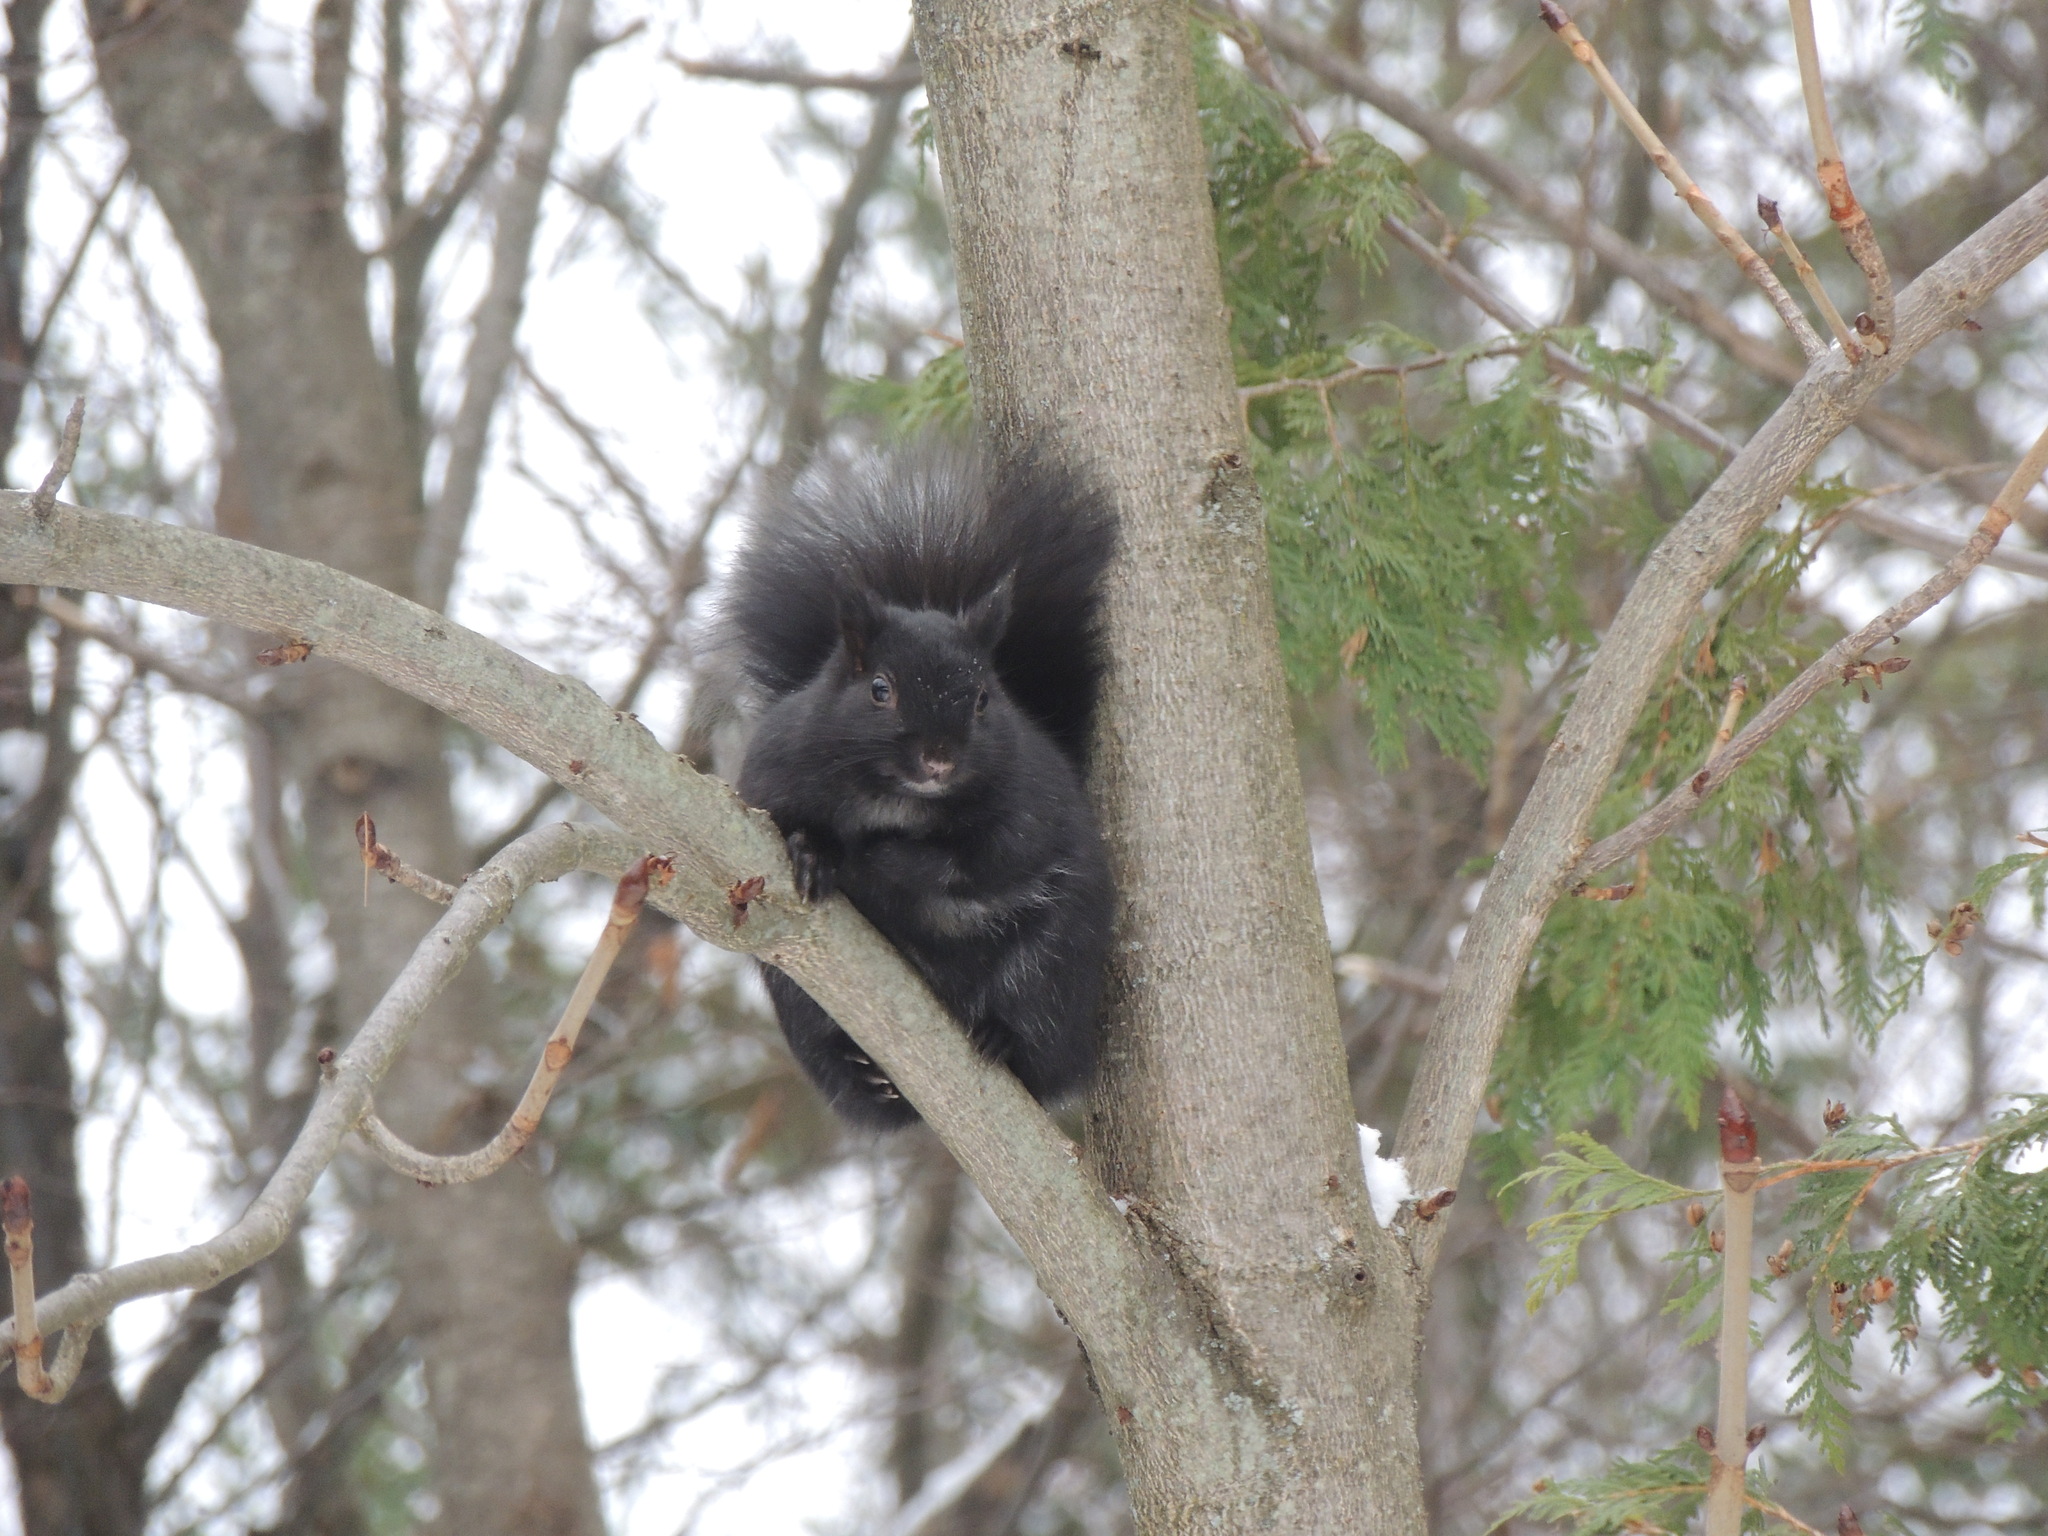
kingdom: Animalia
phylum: Chordata
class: Mammalia
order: Rodentia
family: Sciuridae
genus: Sciurus
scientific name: Sciurus carolinensis
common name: Eastern gray squirrel
